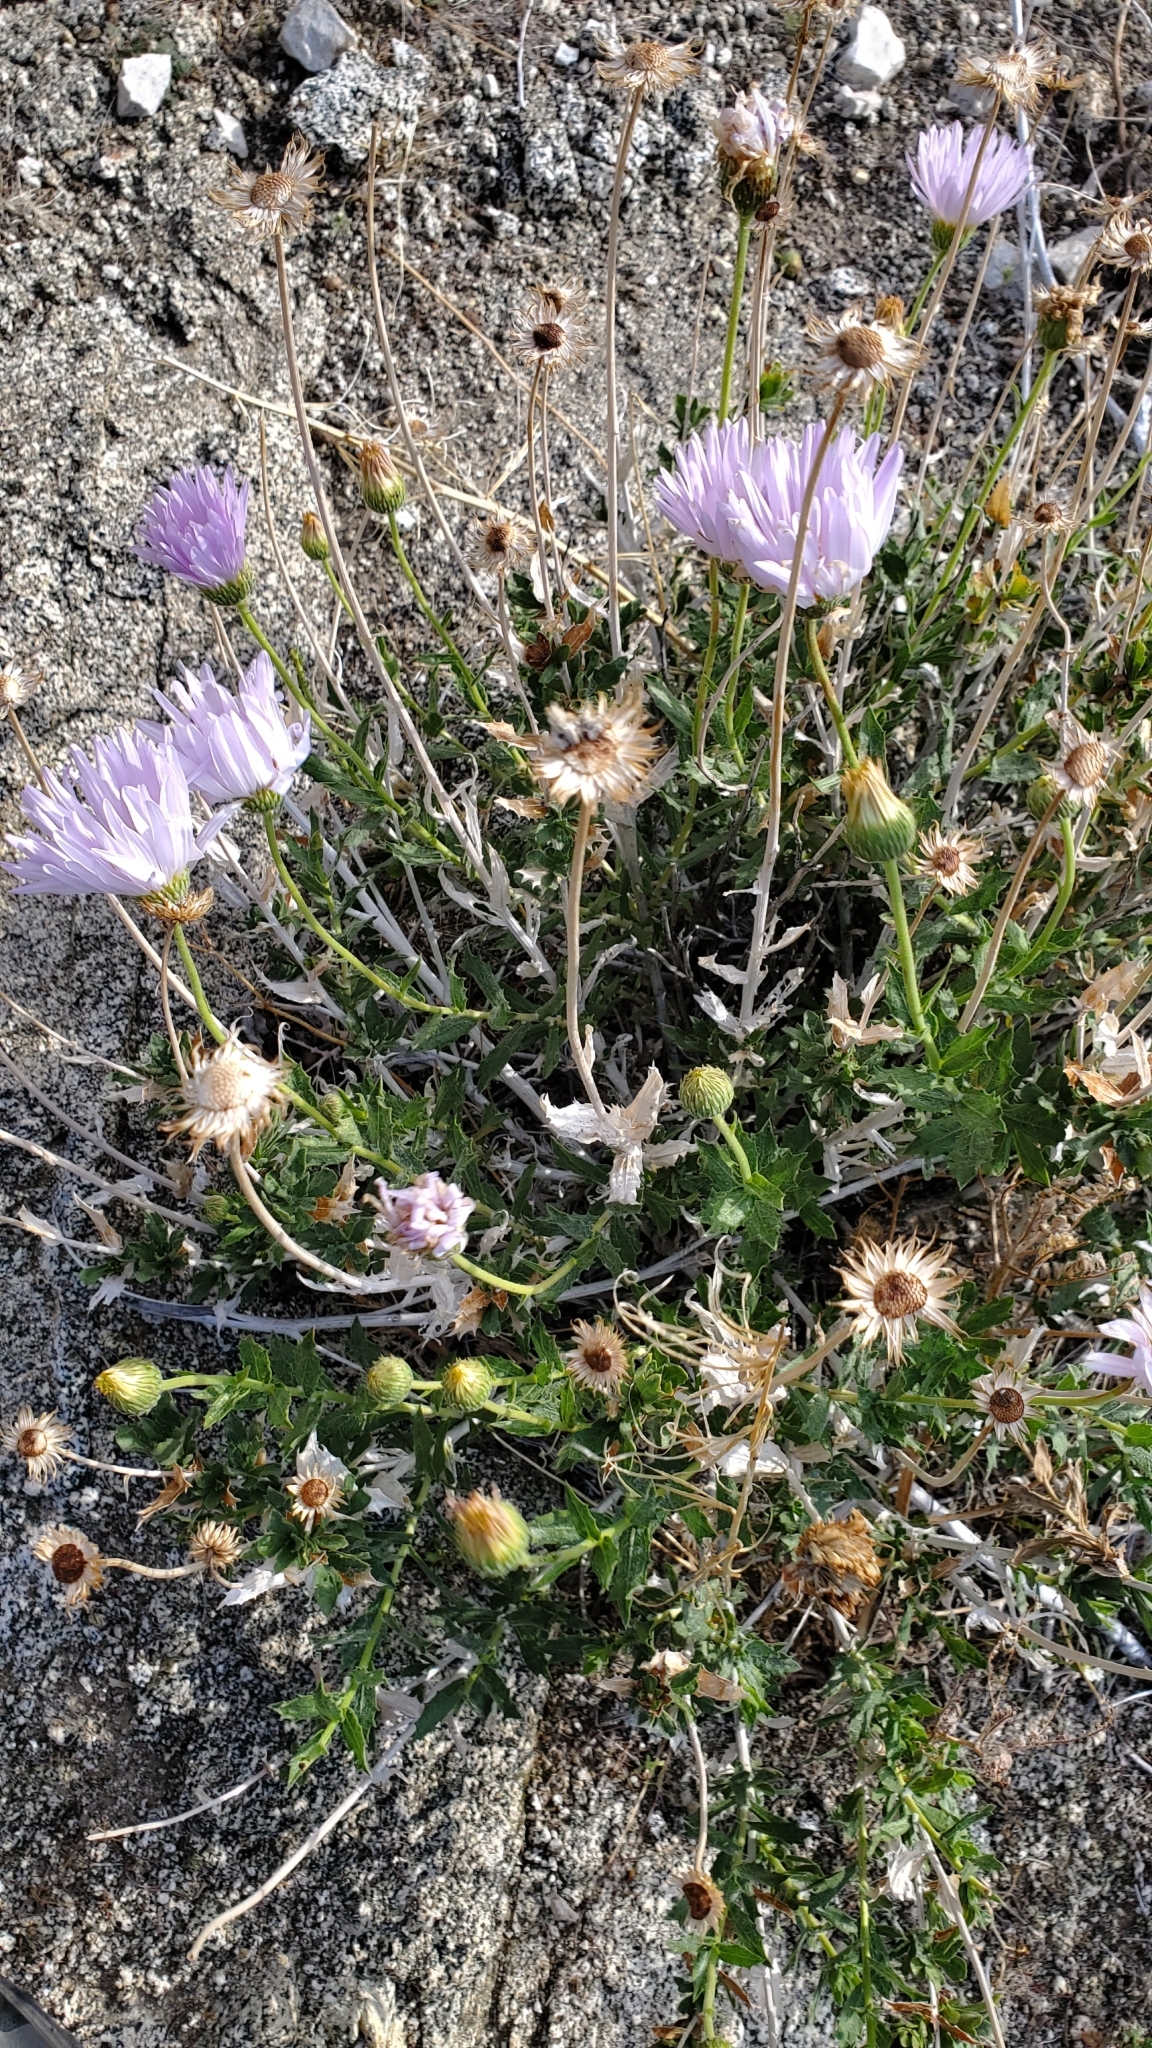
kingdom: Plantae
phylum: Tracheophyta
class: Magnoliopsida
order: Asterales
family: Asteraceae
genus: Xylorhiza
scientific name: Xylorhiza tortifolia
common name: Hurt-leaf woody-aster
